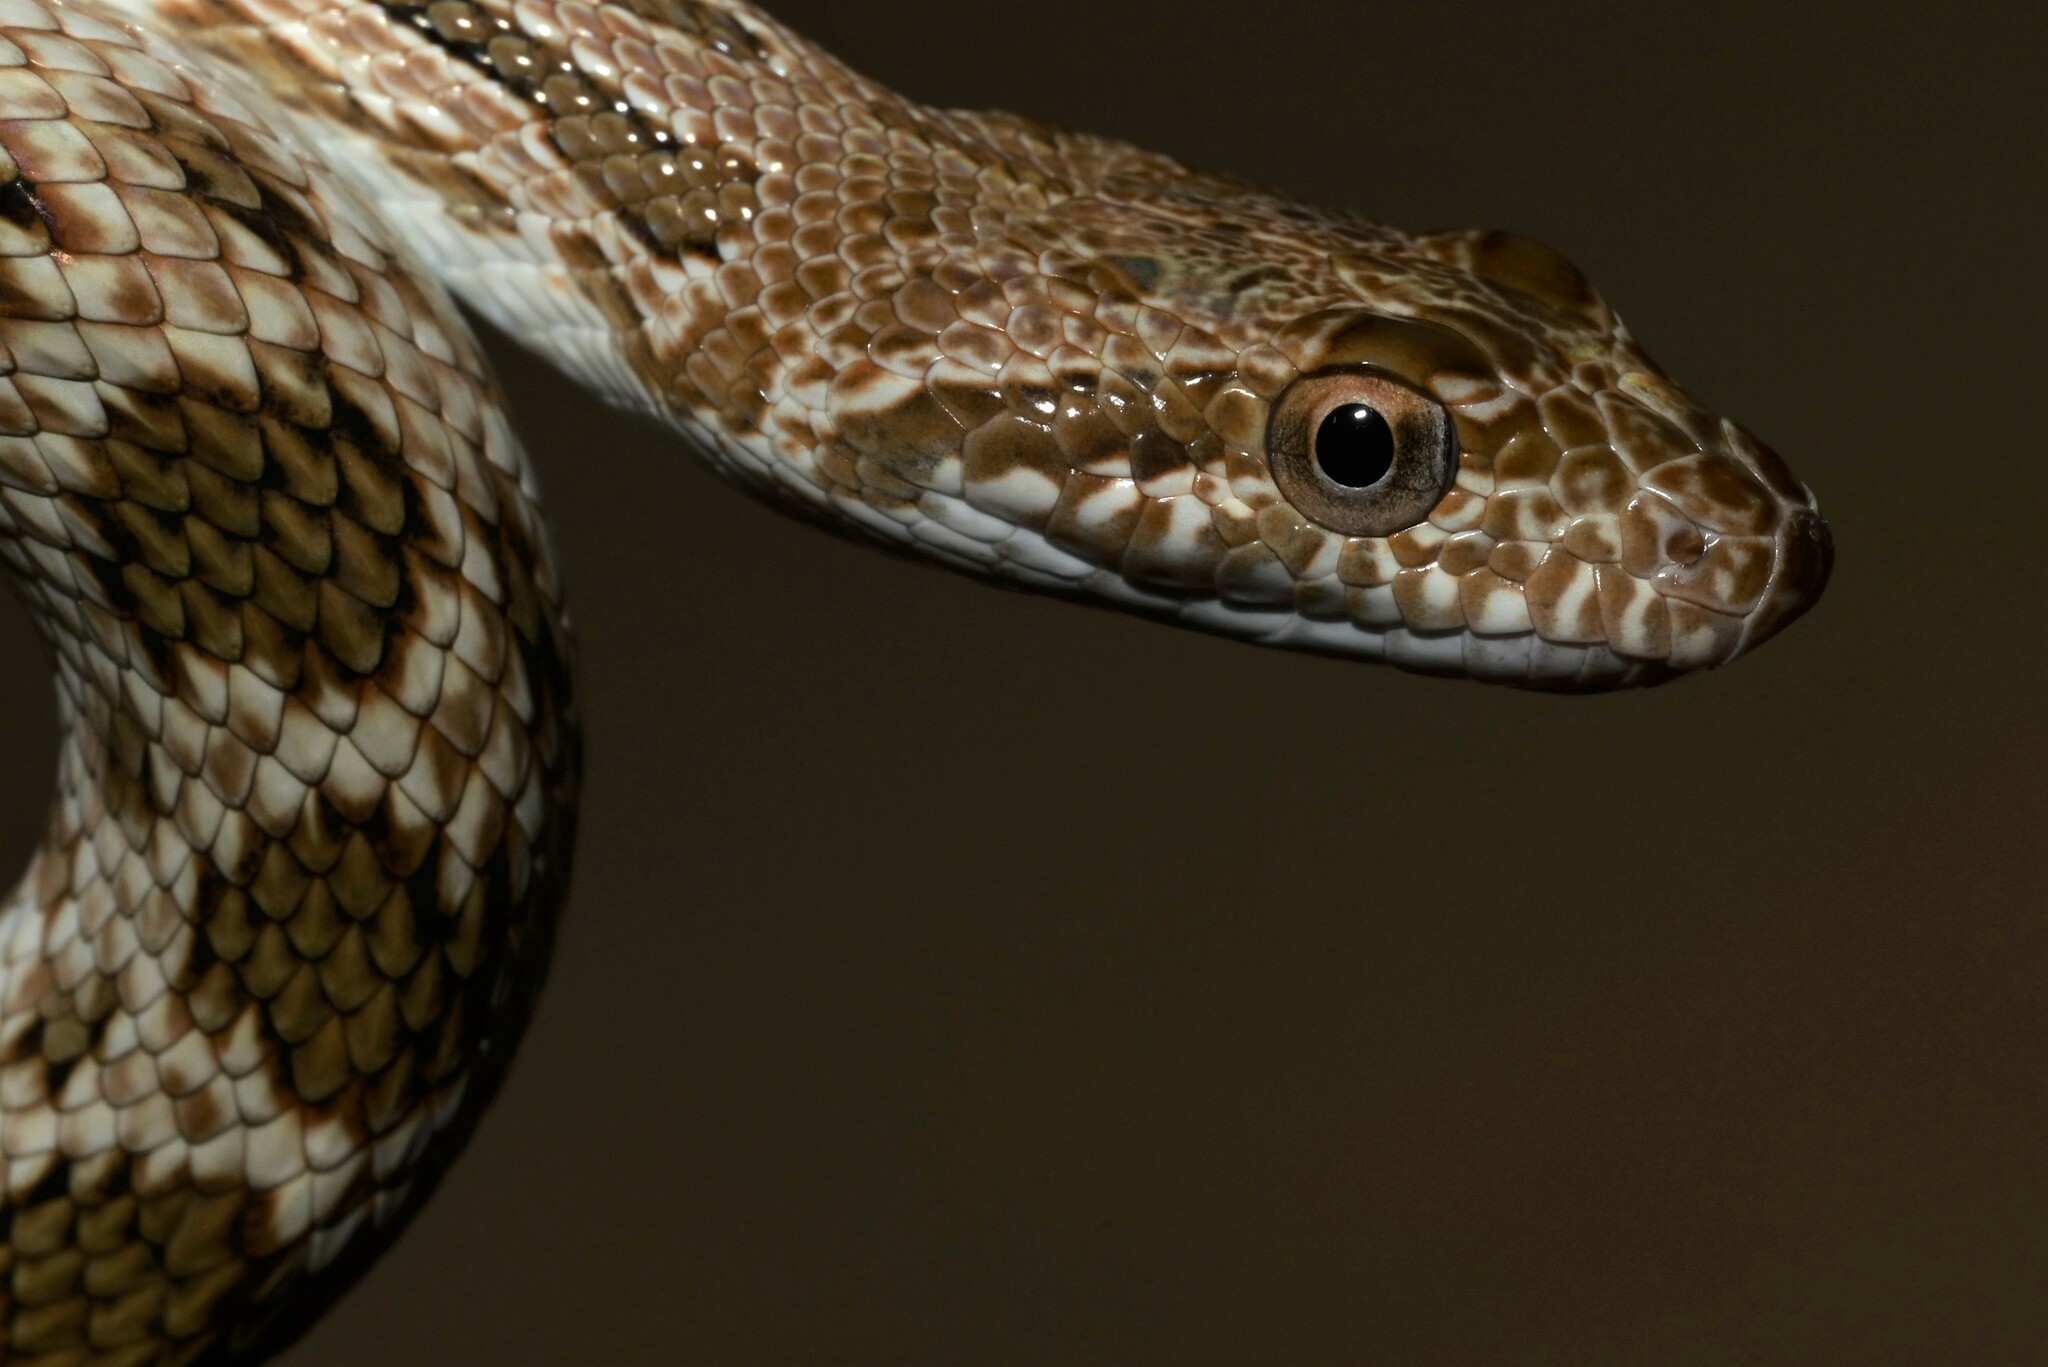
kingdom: Animalia
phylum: Chordata
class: Squamata
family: Colubridae
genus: Spalerosophis
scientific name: Spalerosophis diadema
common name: Diadem snake
